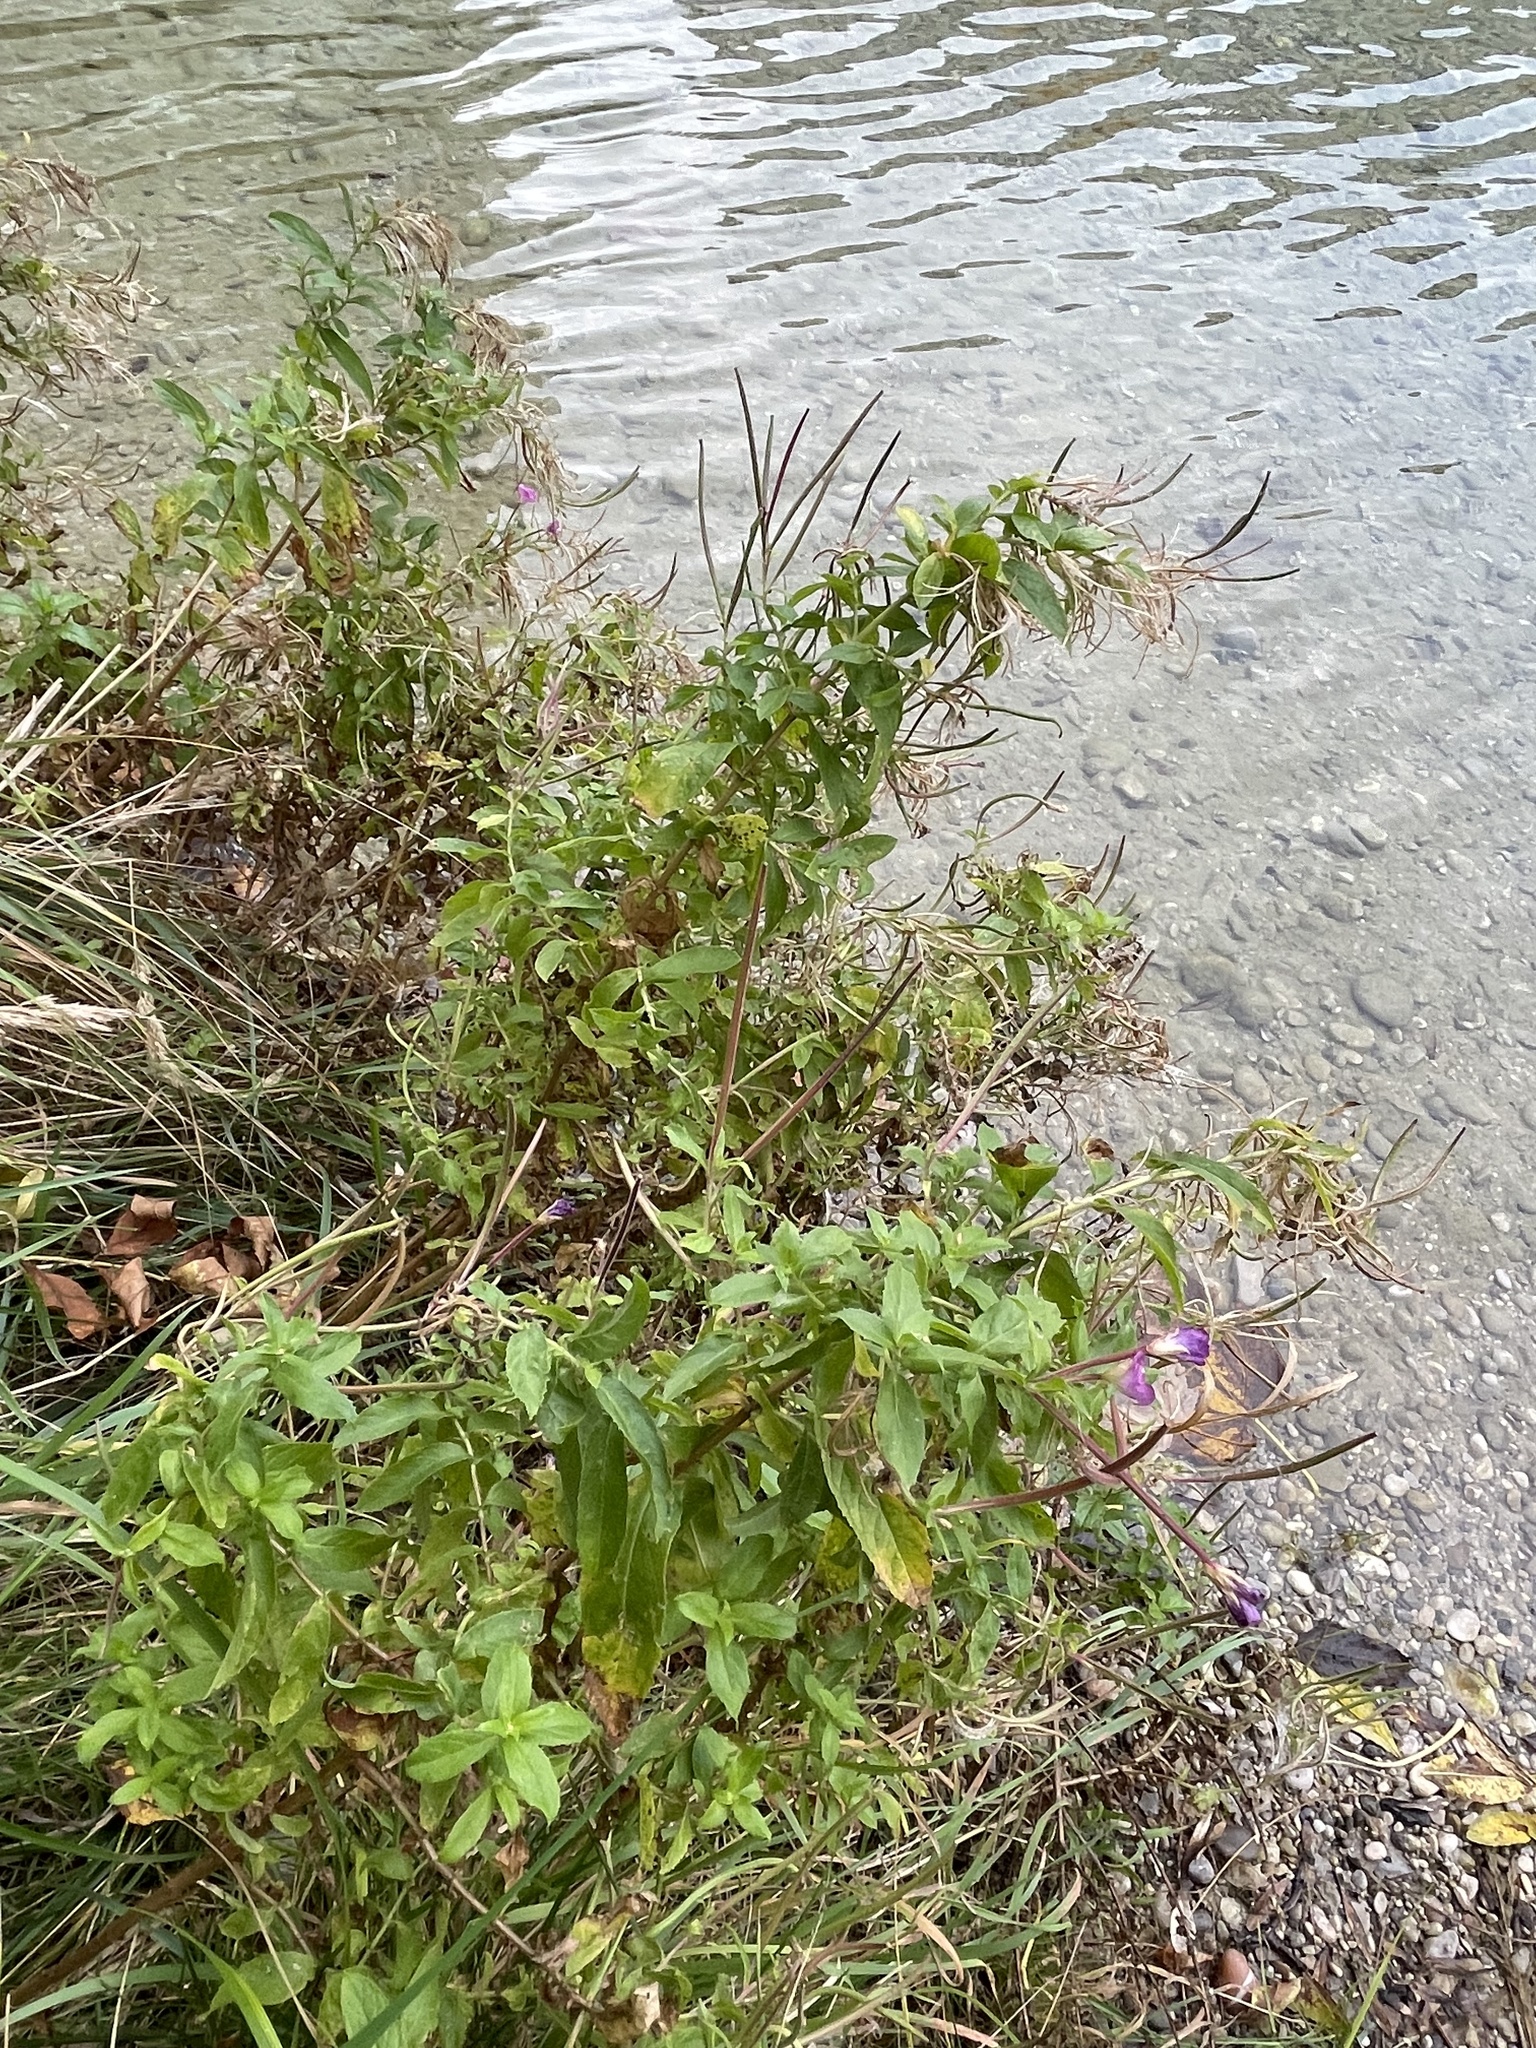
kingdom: Plantae
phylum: Tracheophyta
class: Magnoliopsida
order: Myrtales
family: Onagraceae
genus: Epilobium
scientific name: Epilobium hirsutum
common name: Great willowherb
